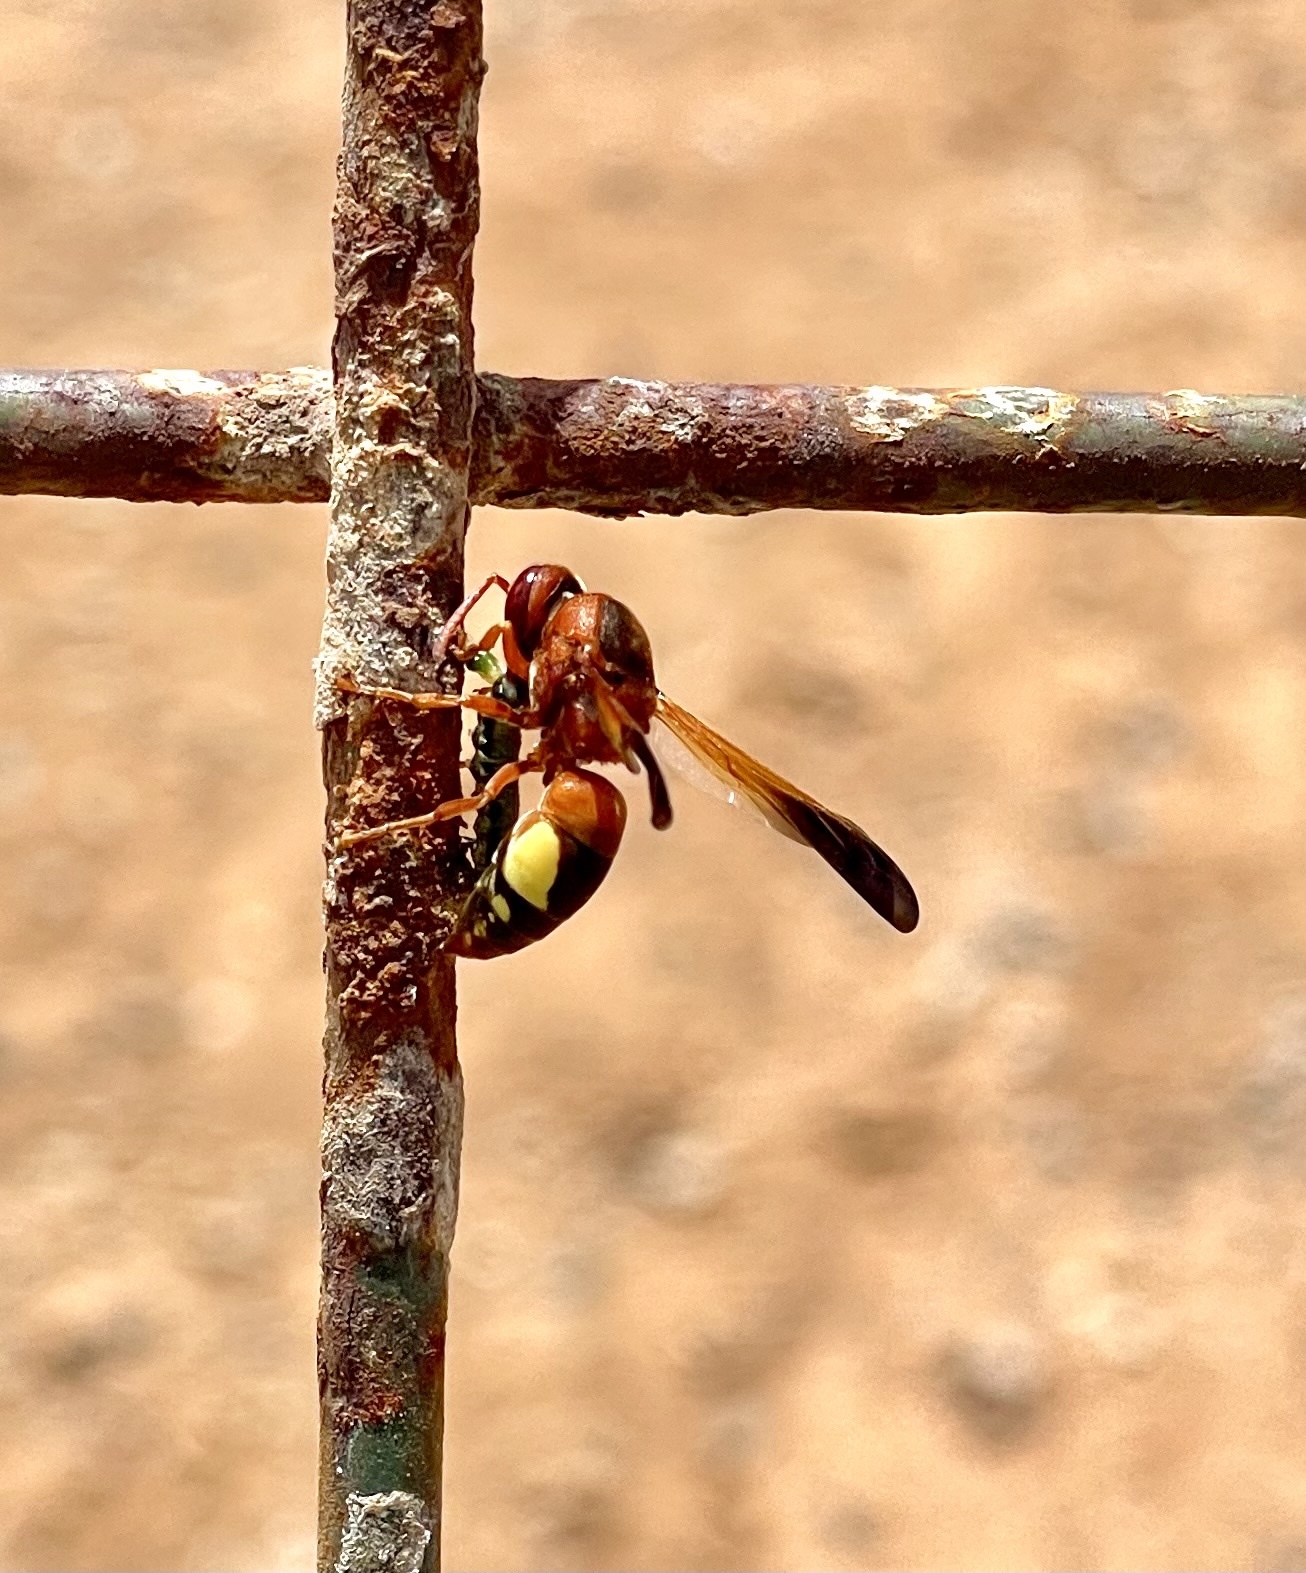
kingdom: Animalia
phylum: Arthropoda
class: Insecta
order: Hymenoptera
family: Eumenidae
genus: Rhynchium
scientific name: Rhynchium oculatum
